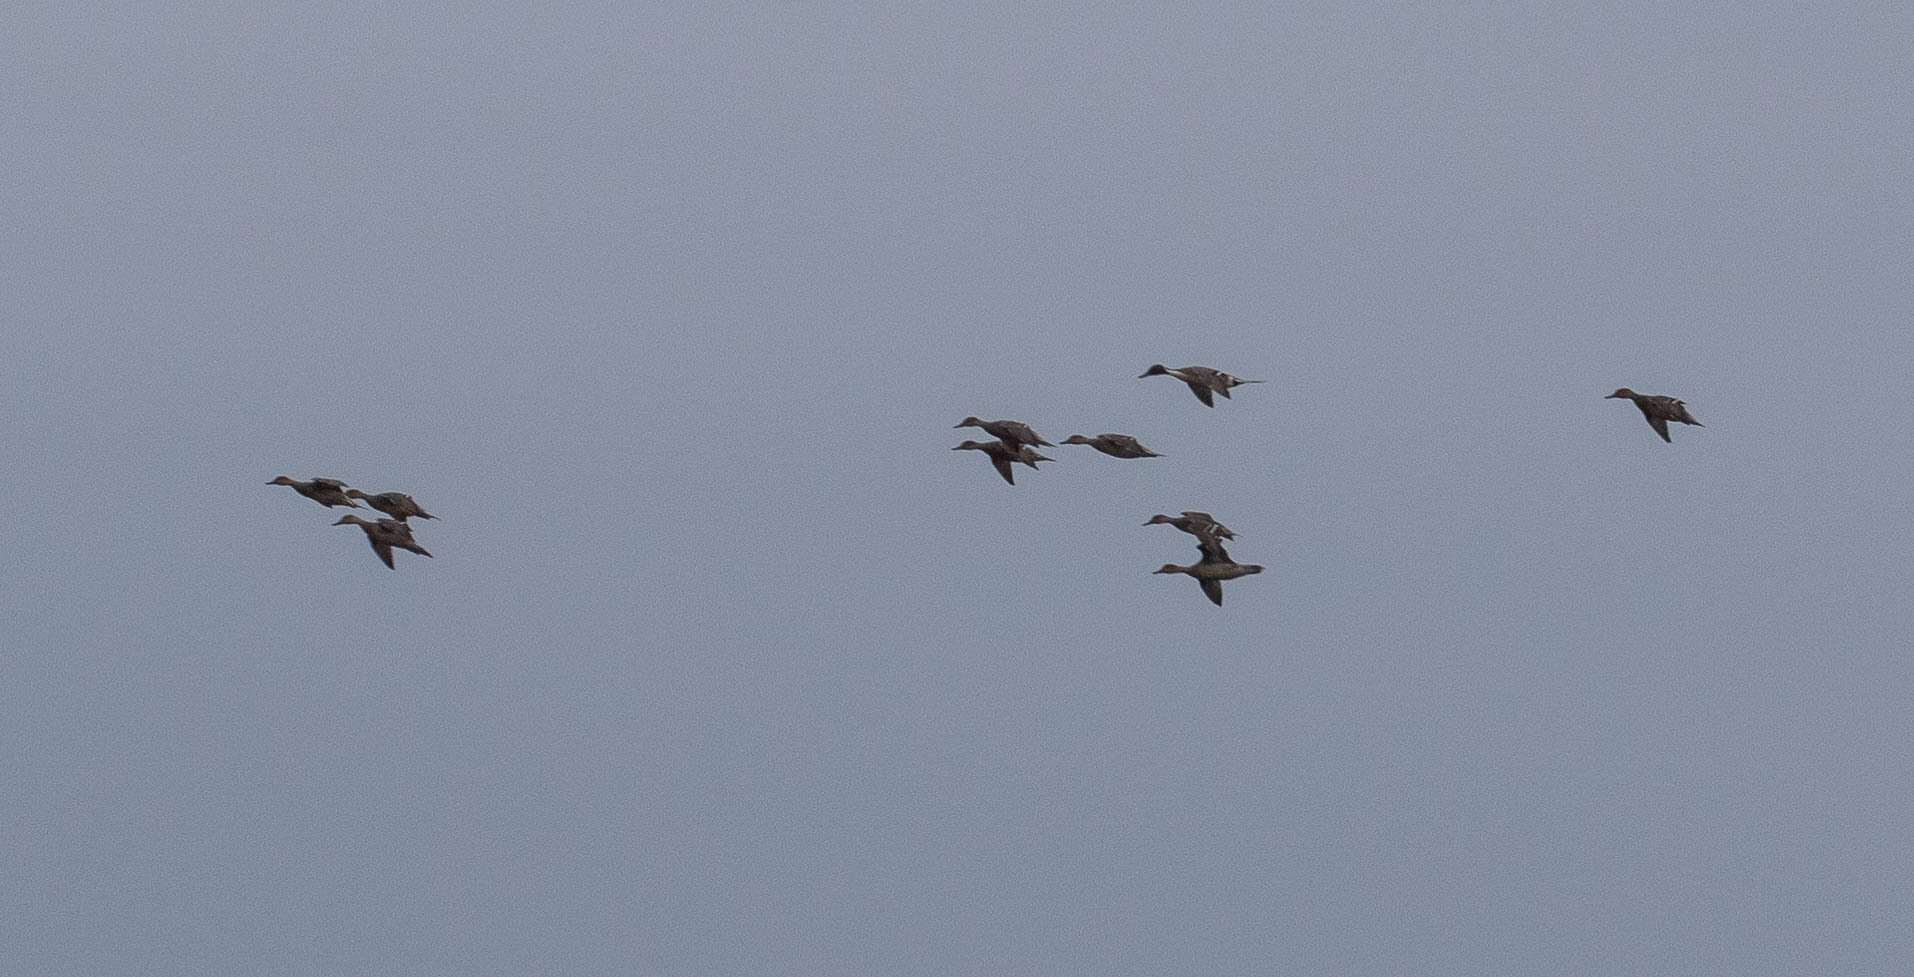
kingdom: Animalia
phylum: Chordata
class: Aves
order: Anseriformes
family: Anatidae
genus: Anas
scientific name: Anas acuta
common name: Northern pintail
